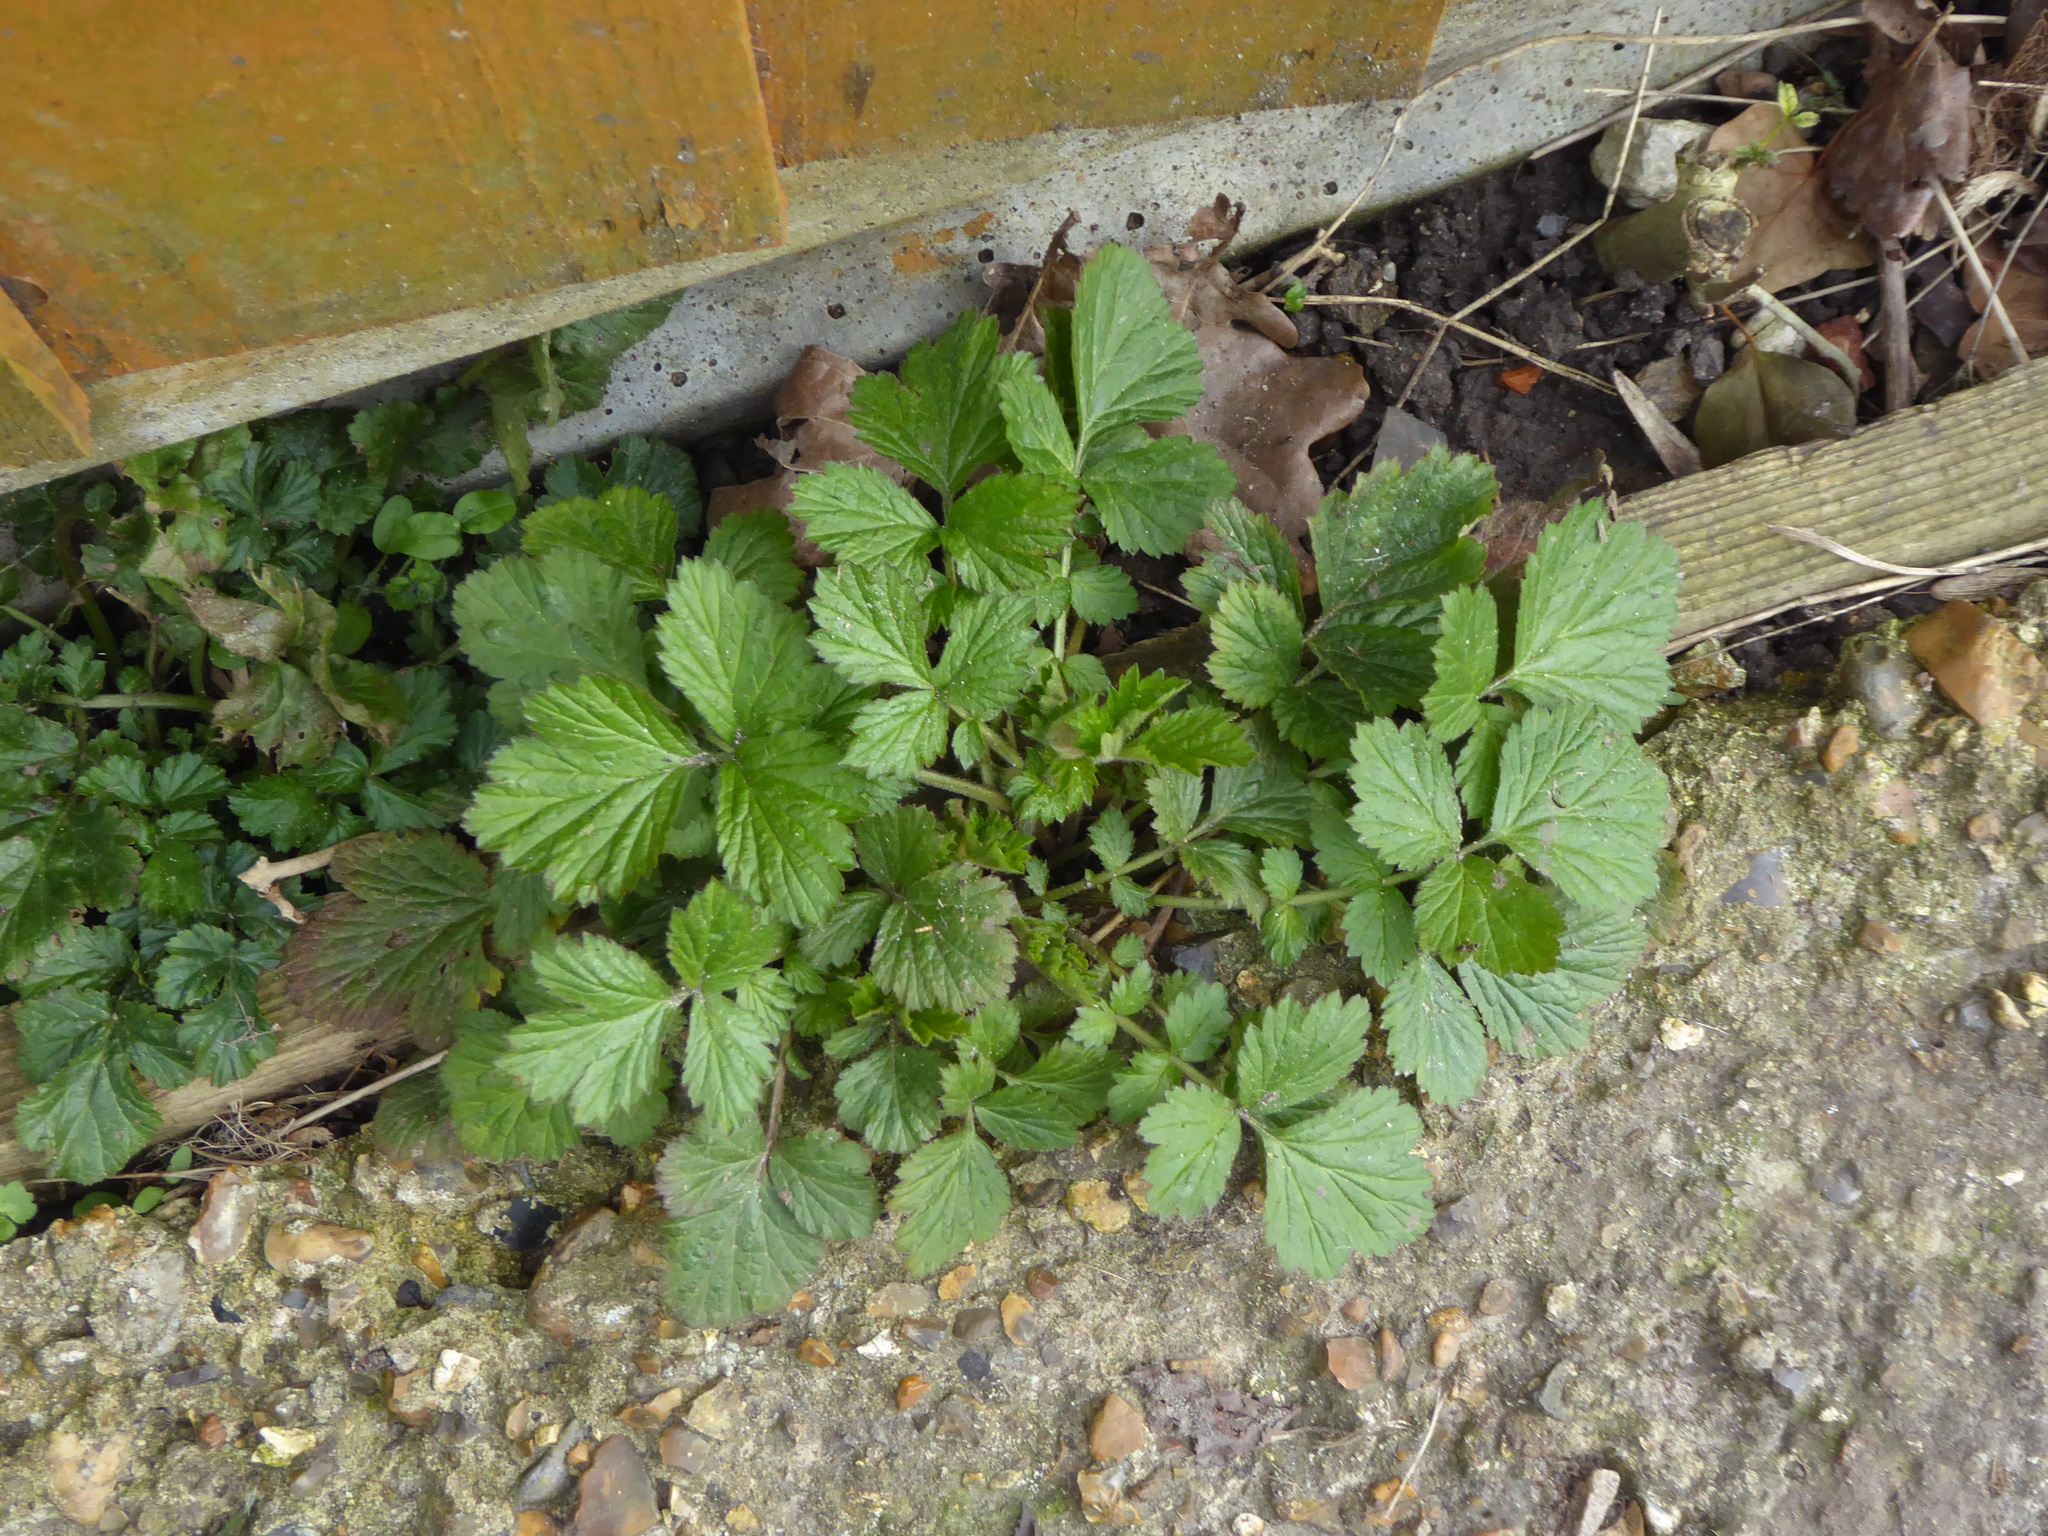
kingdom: Plantae
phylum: Tracheophyta
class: Magnoliopsida
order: Rosales
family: Rosaceae
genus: Geum
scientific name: Geum urbanum
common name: Wood avens
